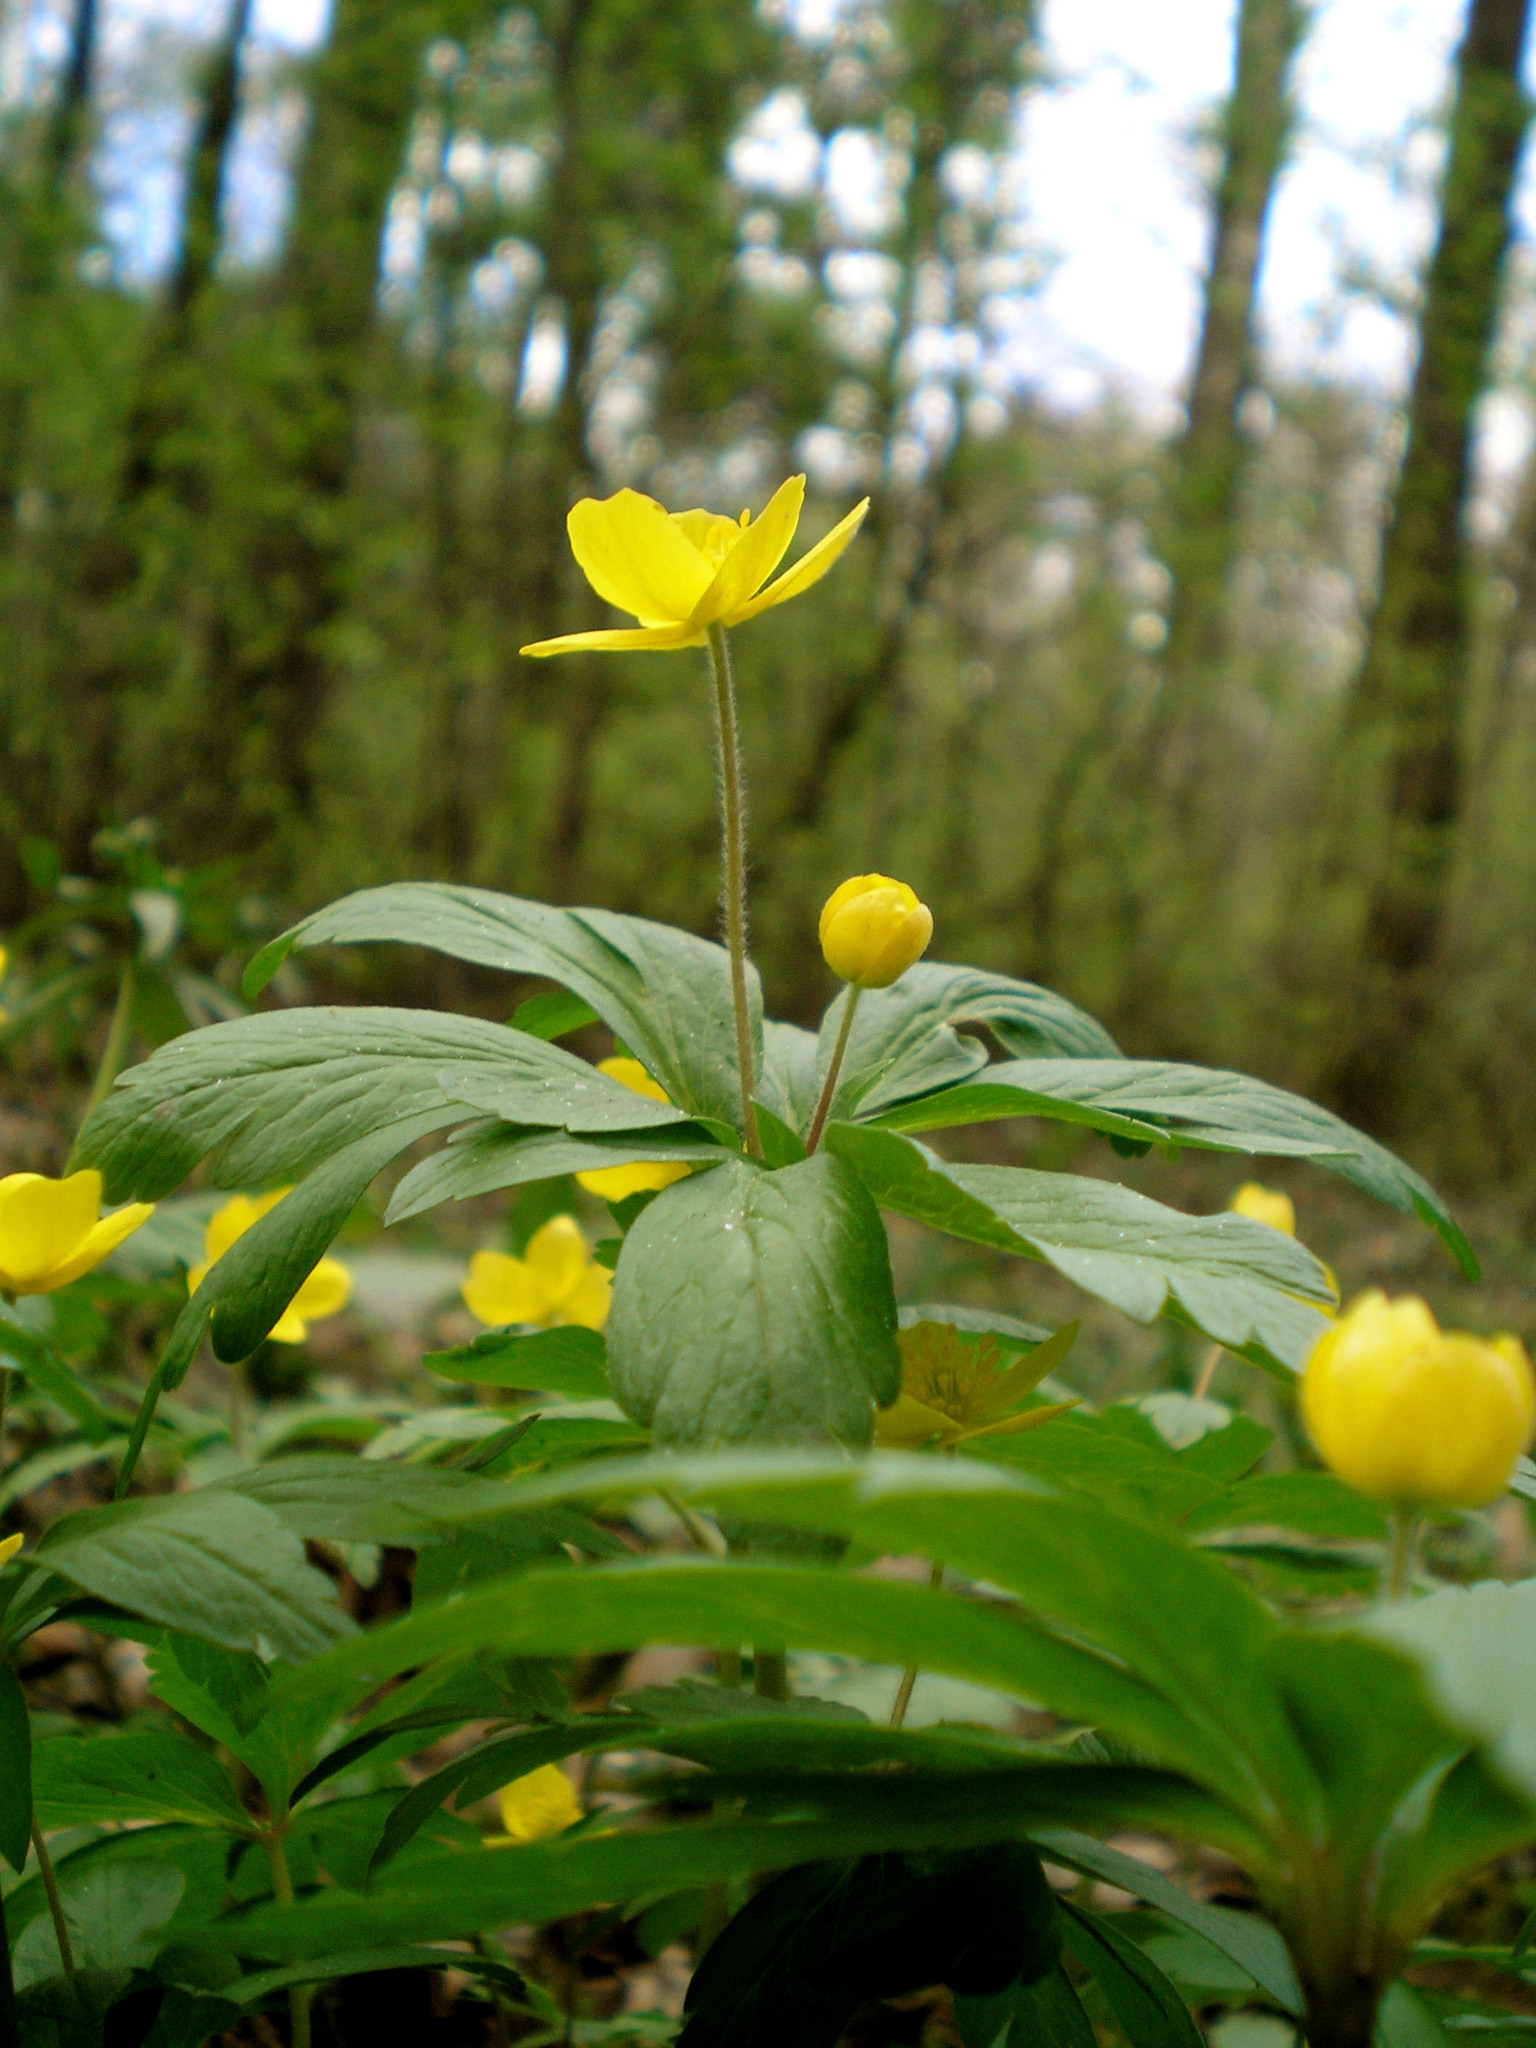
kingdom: Plantae
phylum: Tracheophyta
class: Magnoliopsida
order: Ranunculales
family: Ranunculaceae
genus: Anemone
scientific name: Anemone ranunculoides
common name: Yellow anemone
